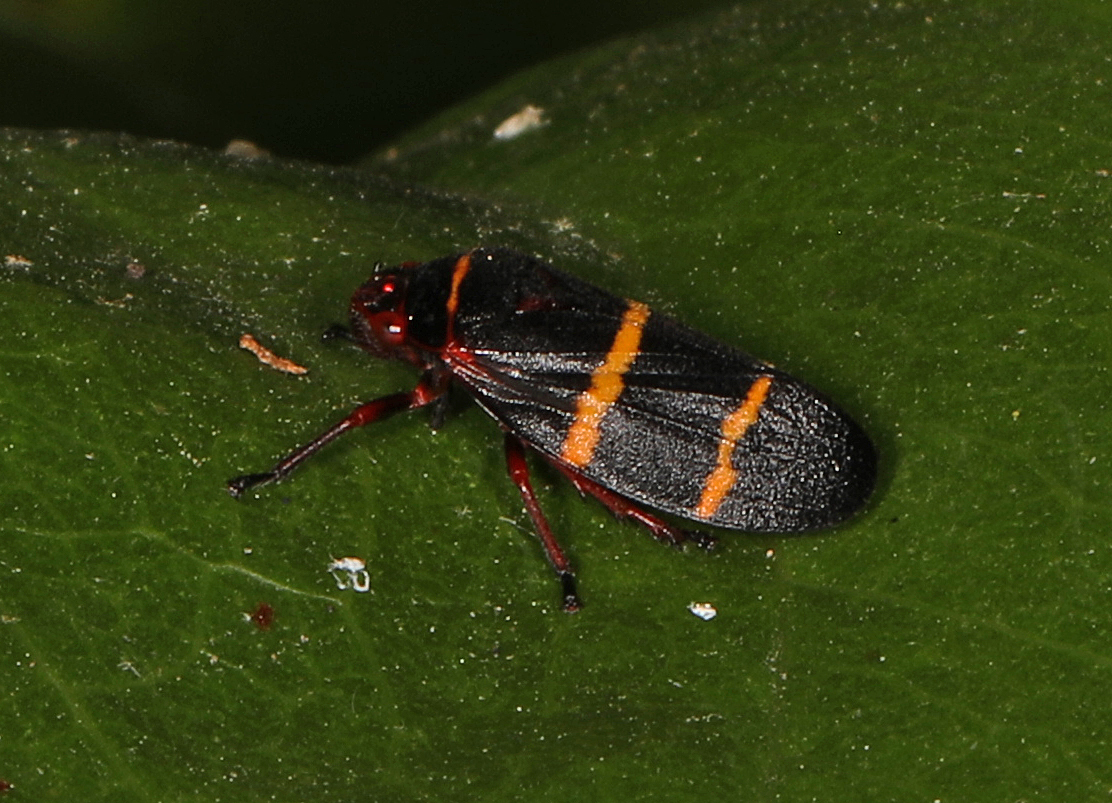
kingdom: Animalia
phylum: Arthropoda
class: Insecta
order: Hemiptera
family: Cercopidae
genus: Prosapia
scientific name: Prosapia bicincta
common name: Twolined spittlebug
